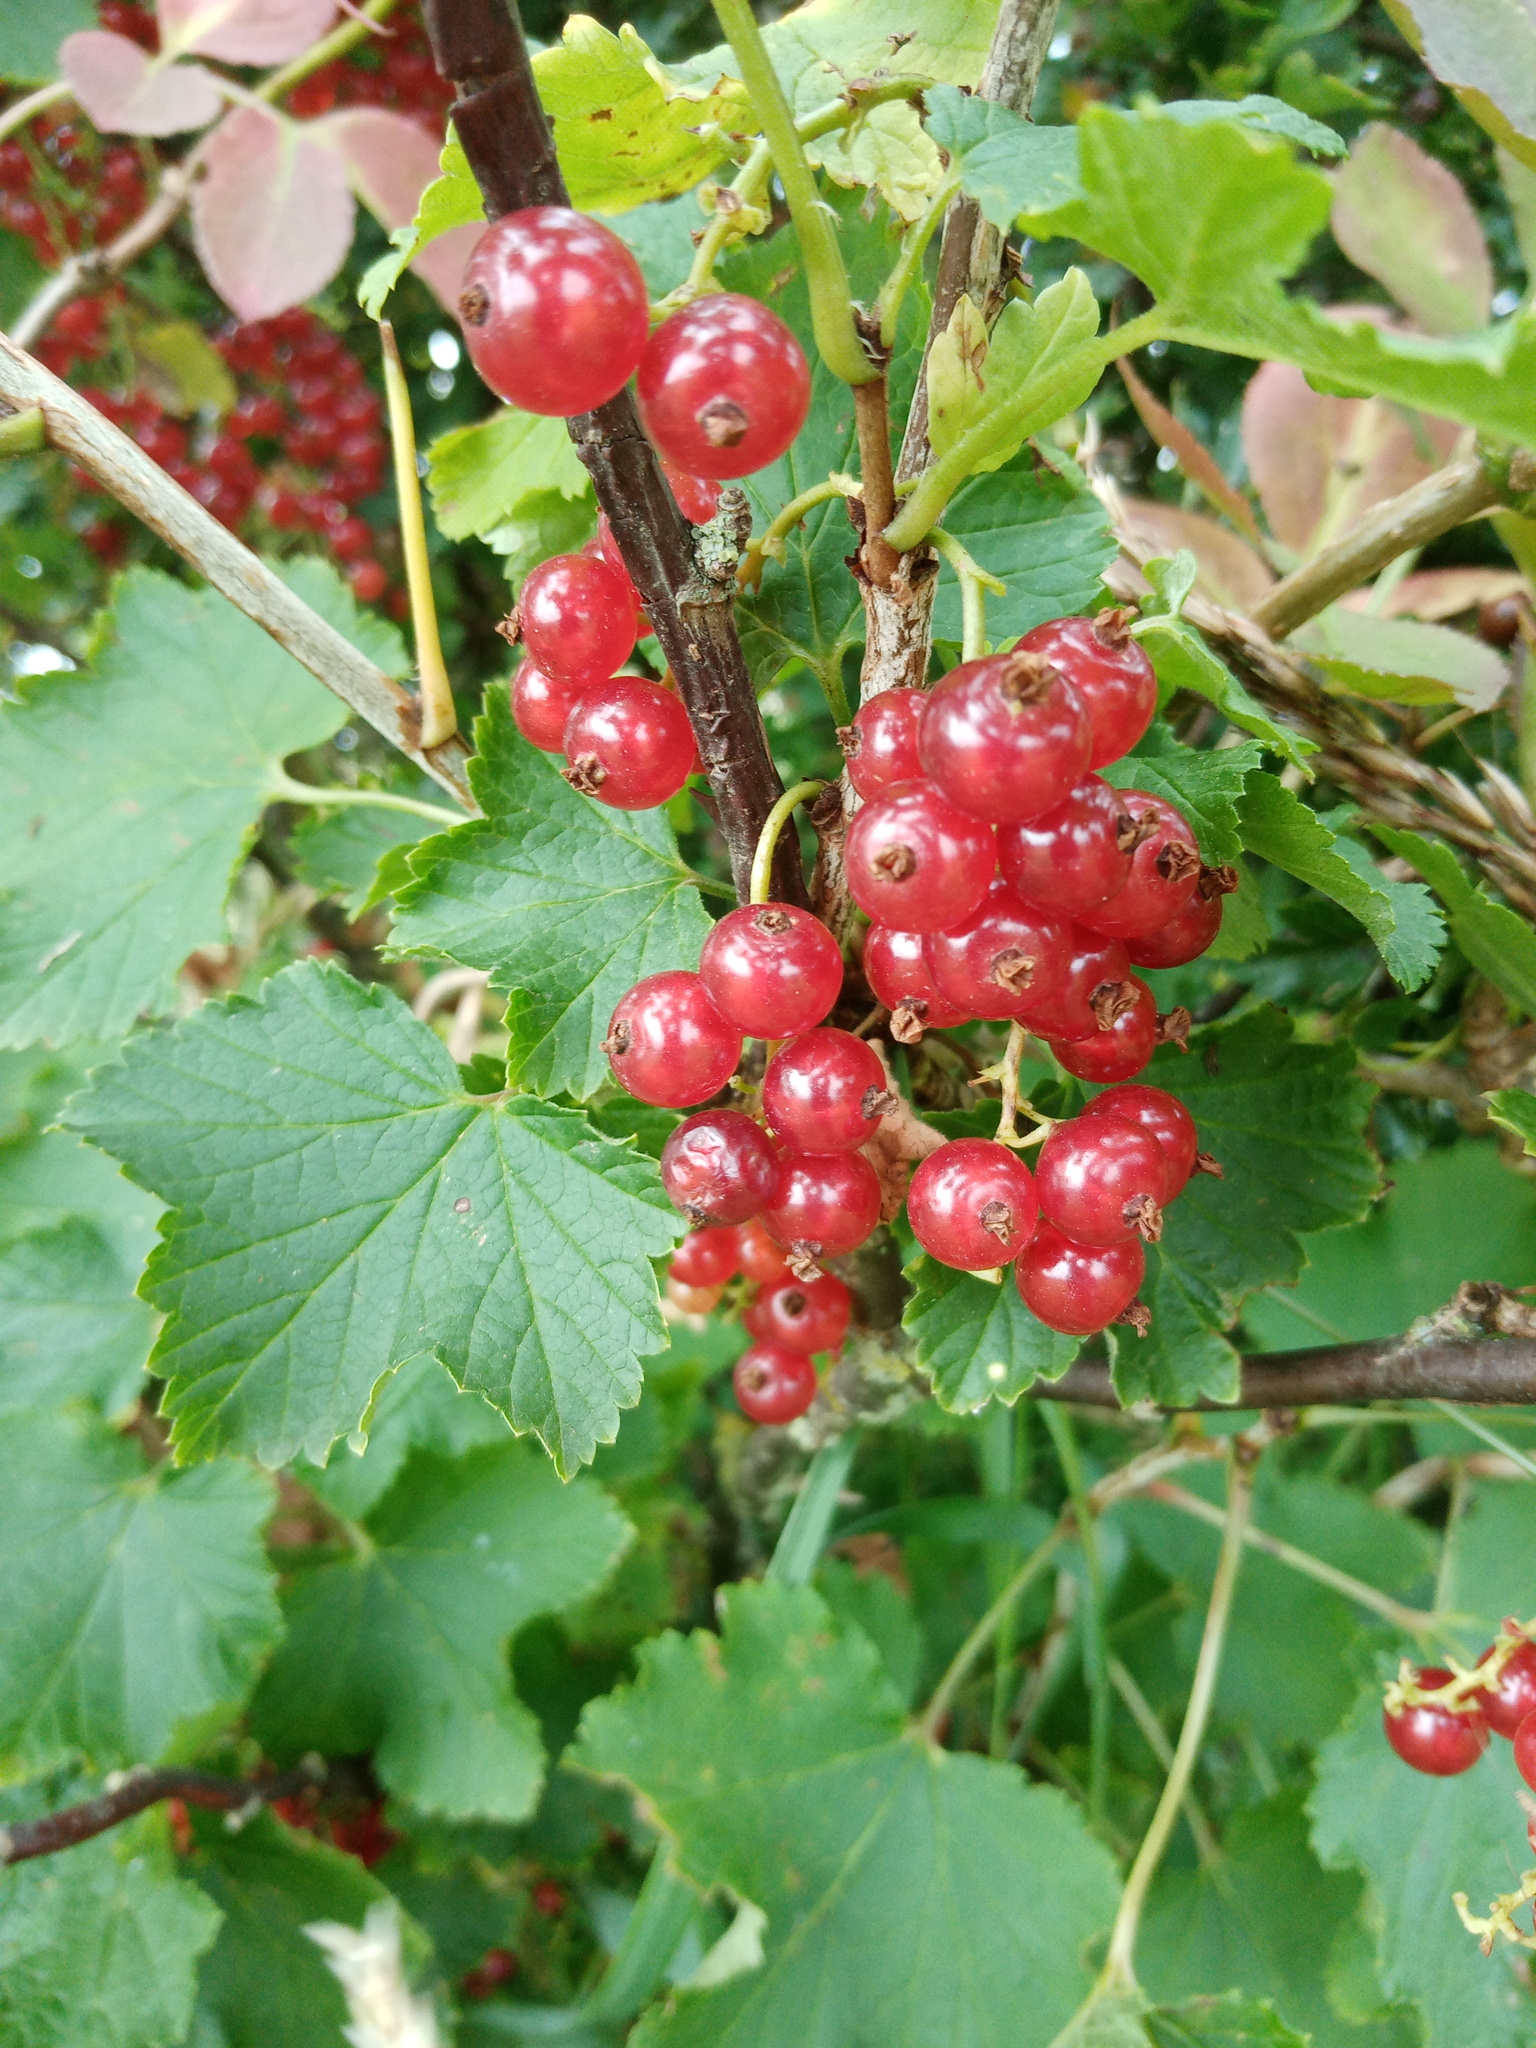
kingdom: Plantae
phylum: Tracheophyta
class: Magnoliopsida
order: Saxifragales
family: Grossulariaceae
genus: Ribes
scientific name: Ribes rubrum
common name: Red currant
